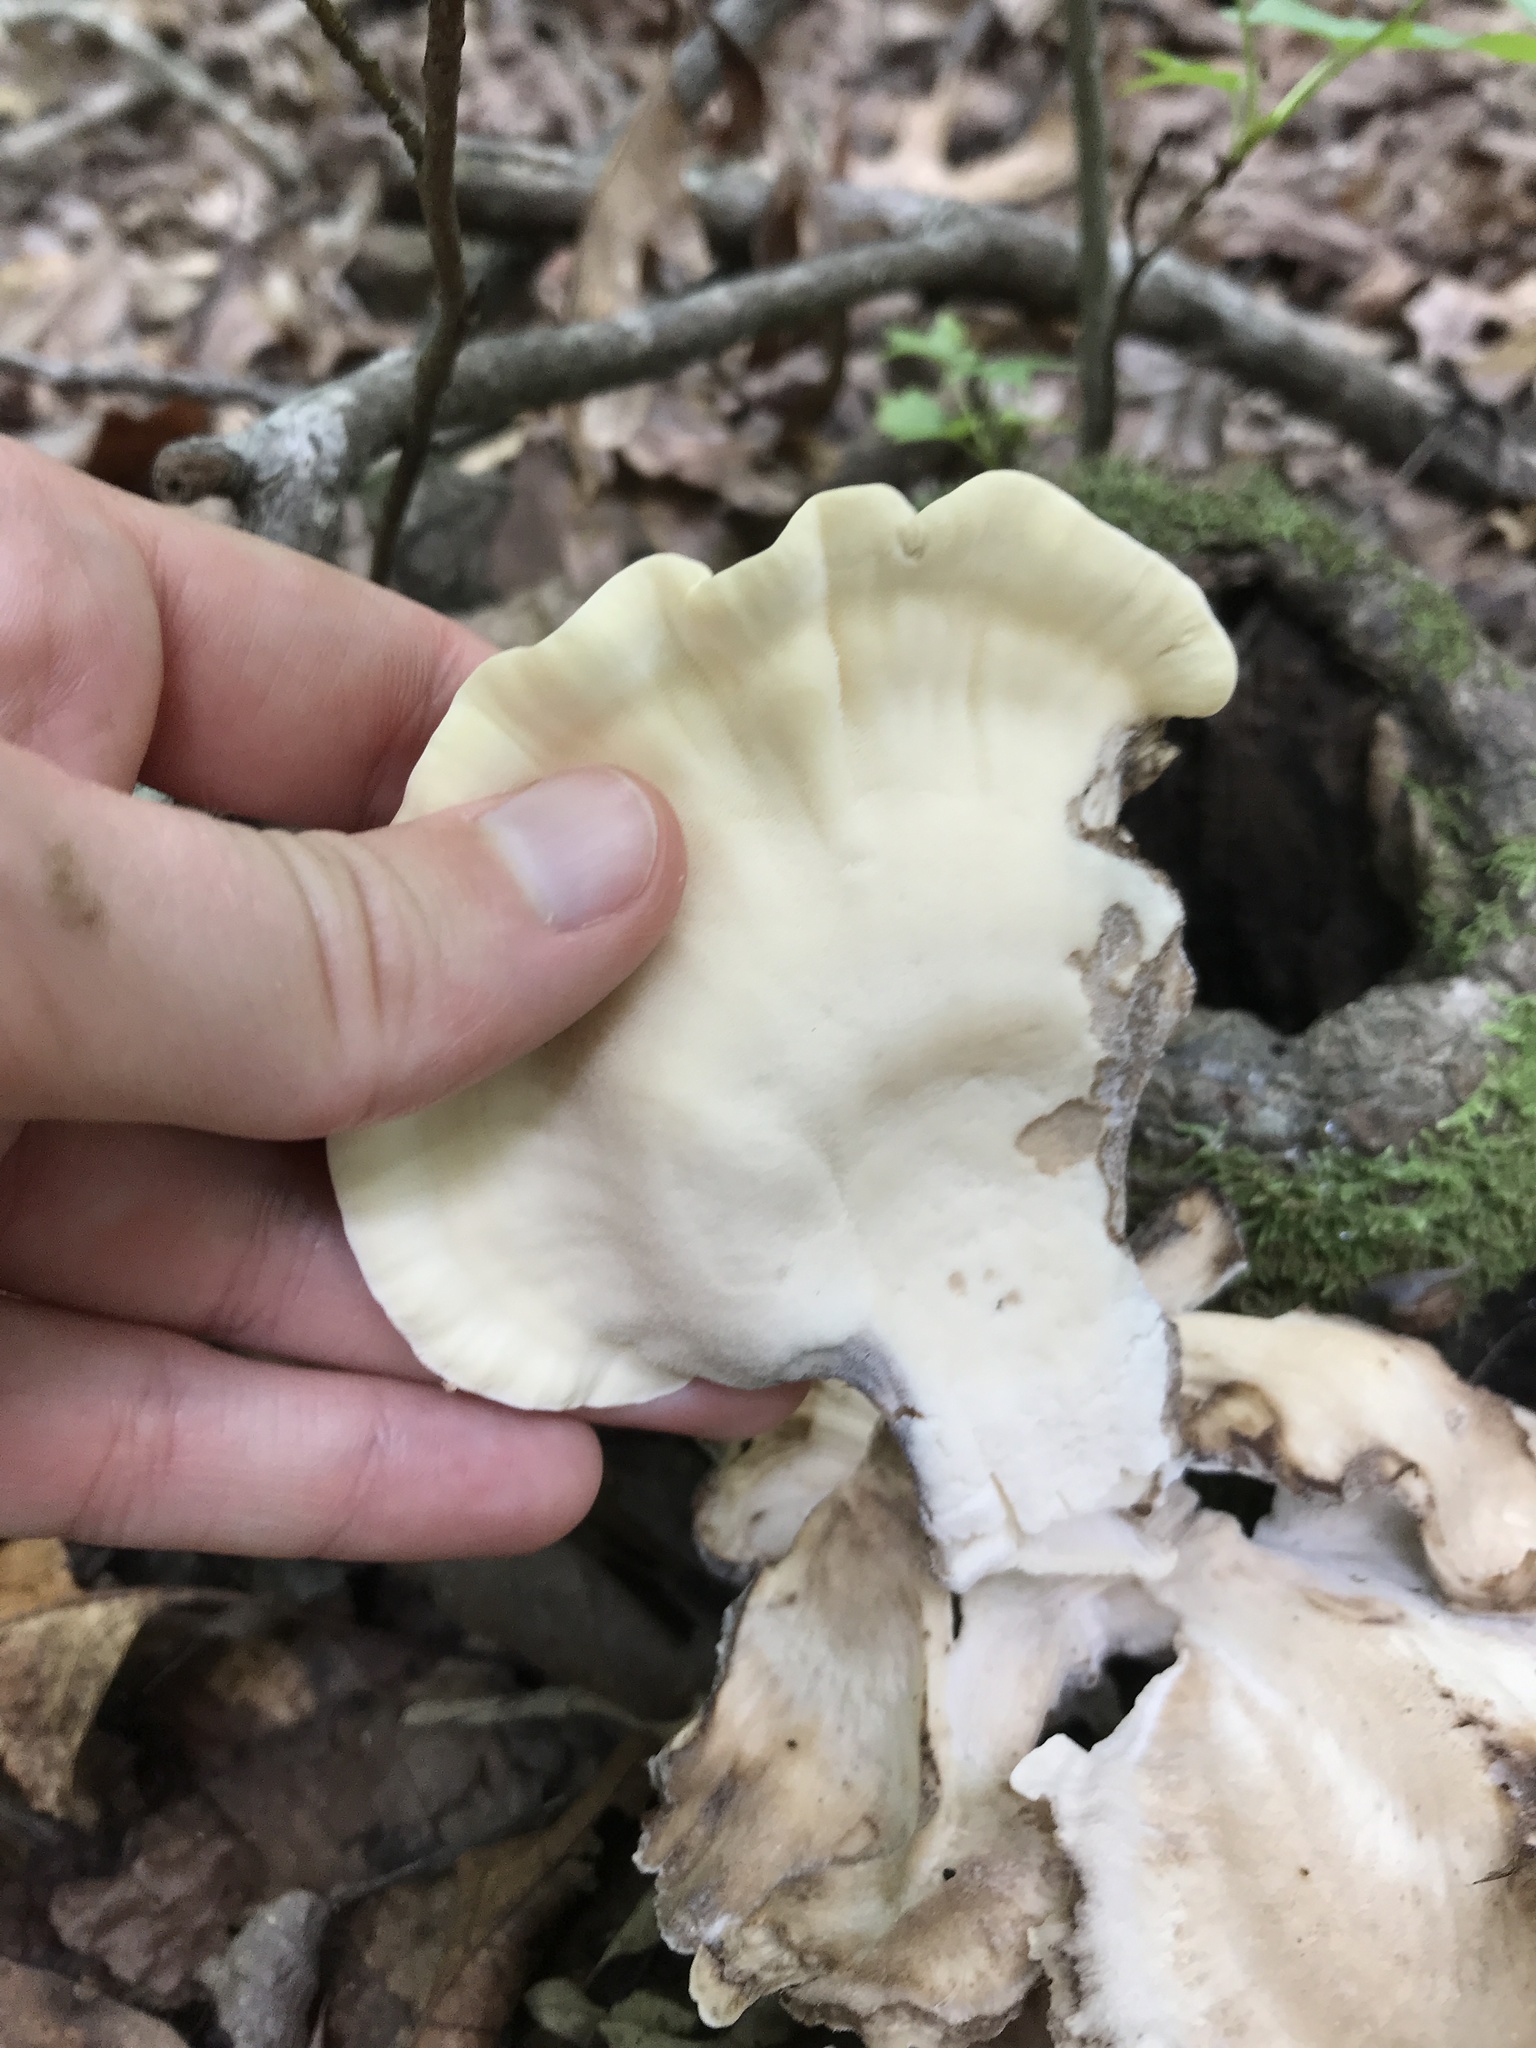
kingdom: Fungi
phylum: Basidiomycota
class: Agaricomycetes
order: Polyporales
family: Meripilaceae
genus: Meripilus
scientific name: Meripilus sumstinei
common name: Black-staining polypore
